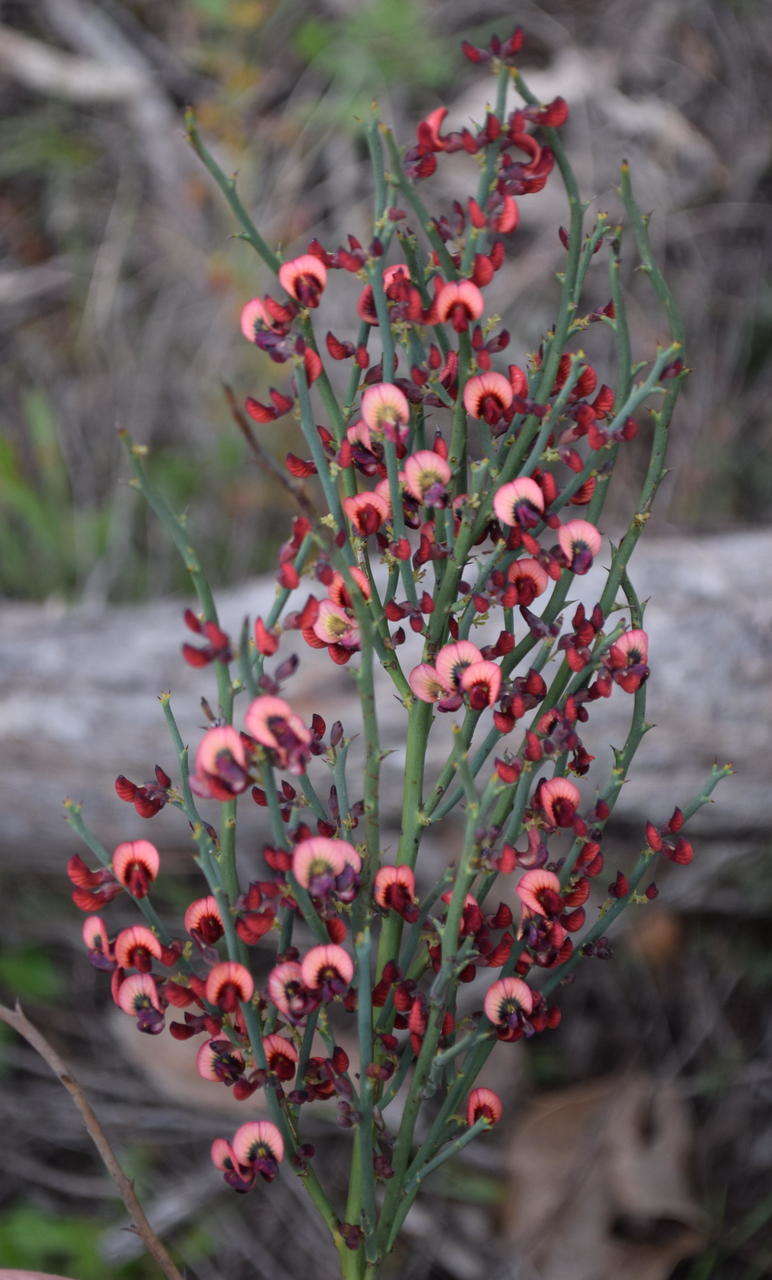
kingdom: Plantae
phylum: Tracheophyta
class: Magnoliopsida
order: Fabales
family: Fabaceae
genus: Daviesia
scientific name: Daviesia brevifolia
